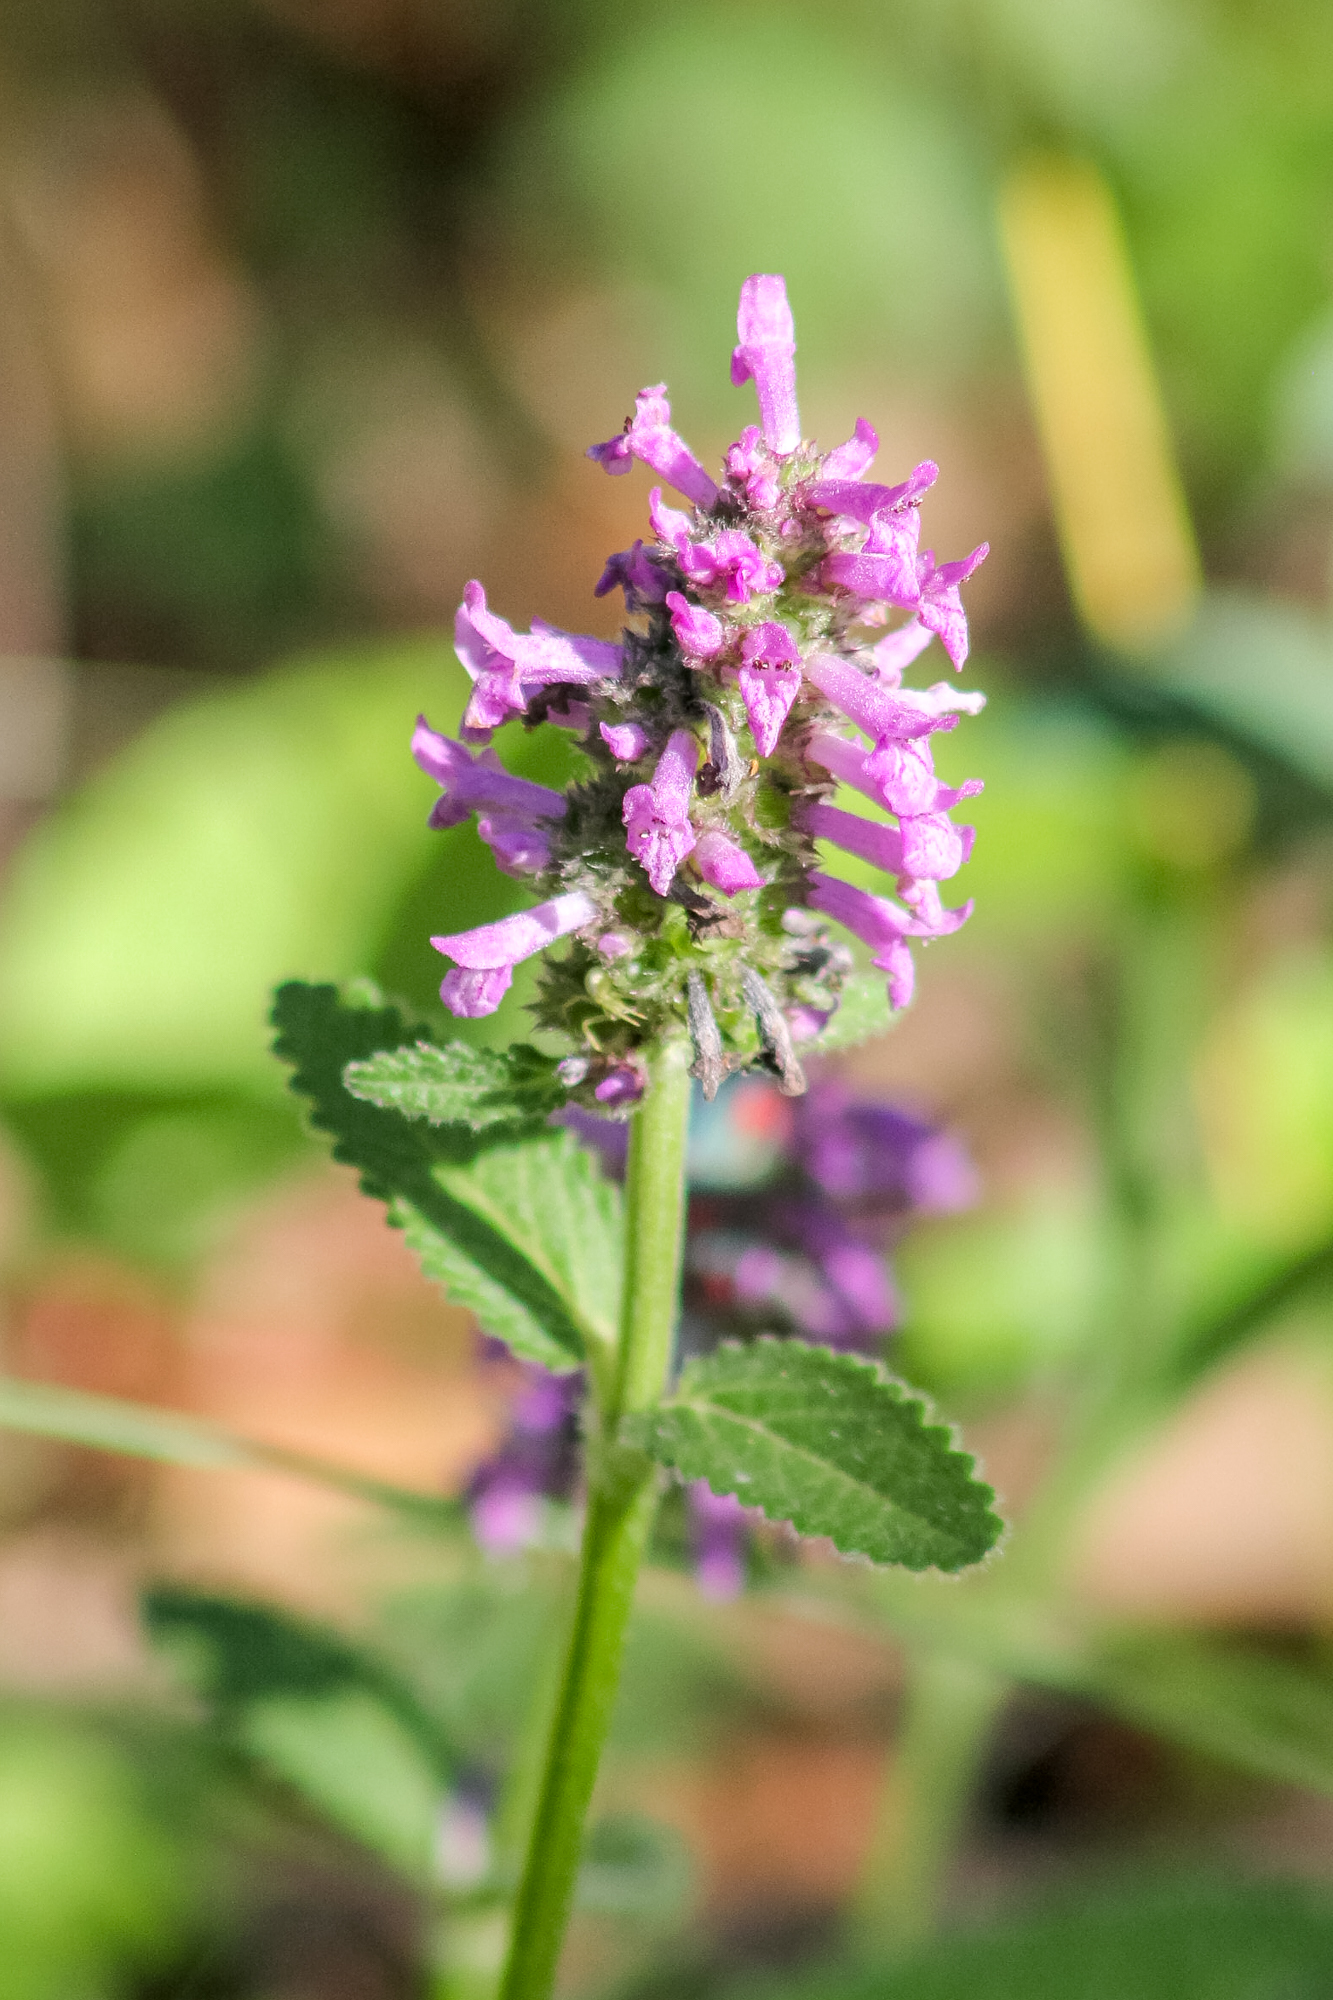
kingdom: Plantae
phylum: Tracheophyta
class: Magnoliopsida
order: Lamiales
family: Lamiaceae
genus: Betonica
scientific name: Betonica officinalis
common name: Bishop's-wort
